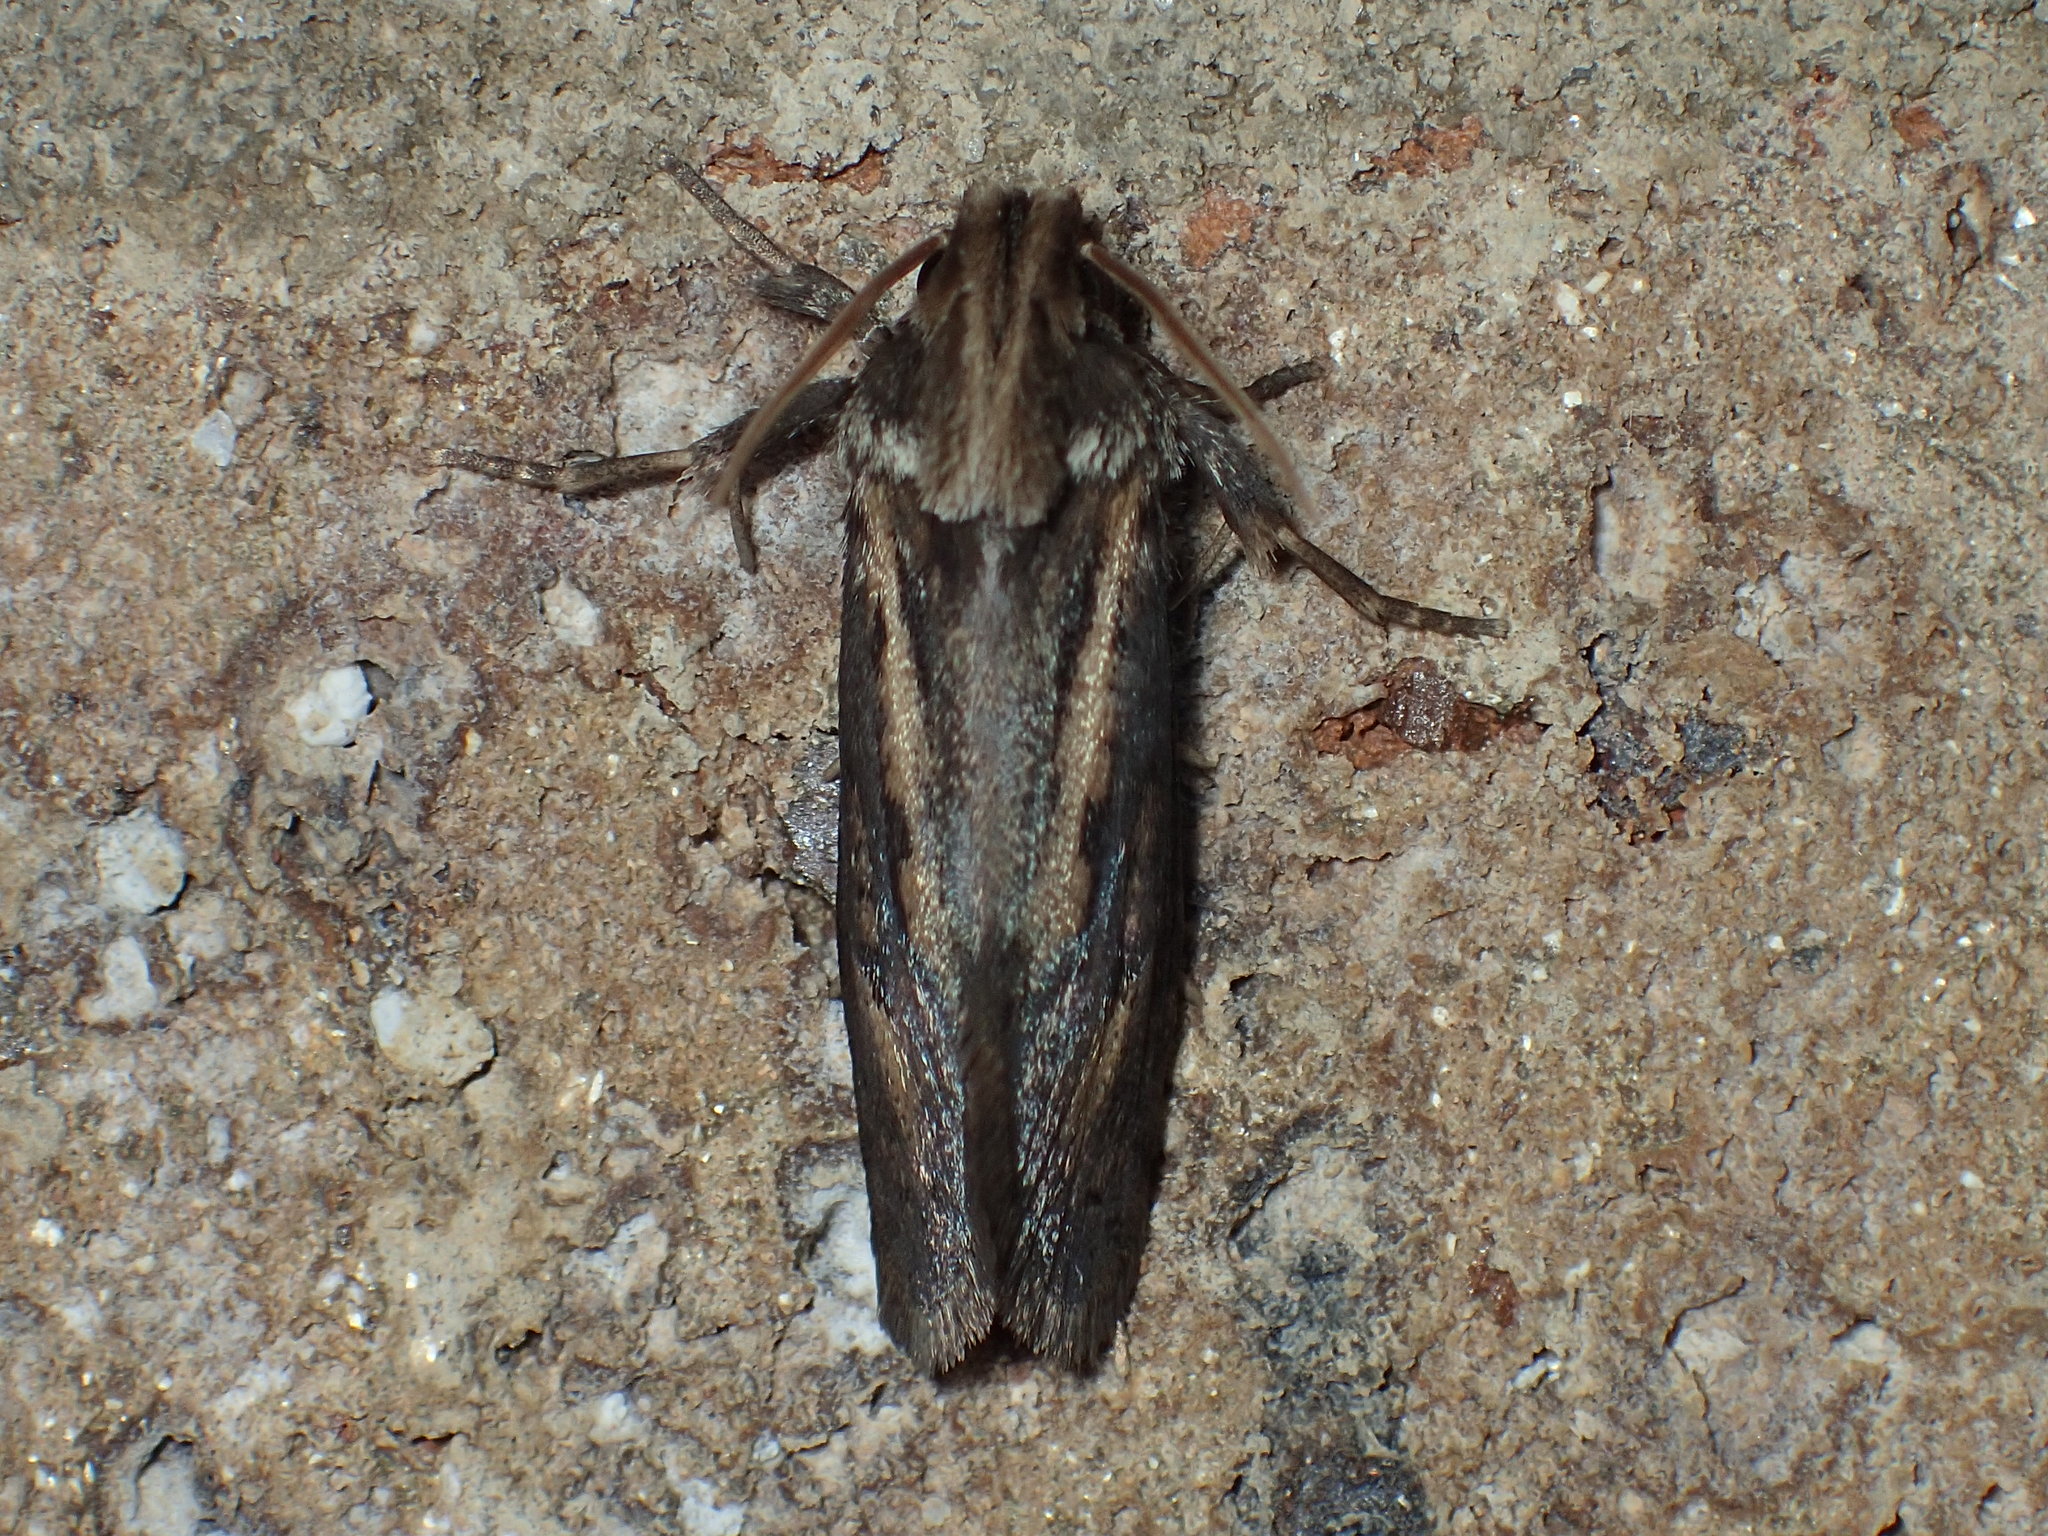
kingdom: Animalia
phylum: Arthropoda
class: Insecta
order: Lepidoptera
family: Tineidae
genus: Acrolophus
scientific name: Acrolophus popeanella
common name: Clemens' grass tubeworm moth
